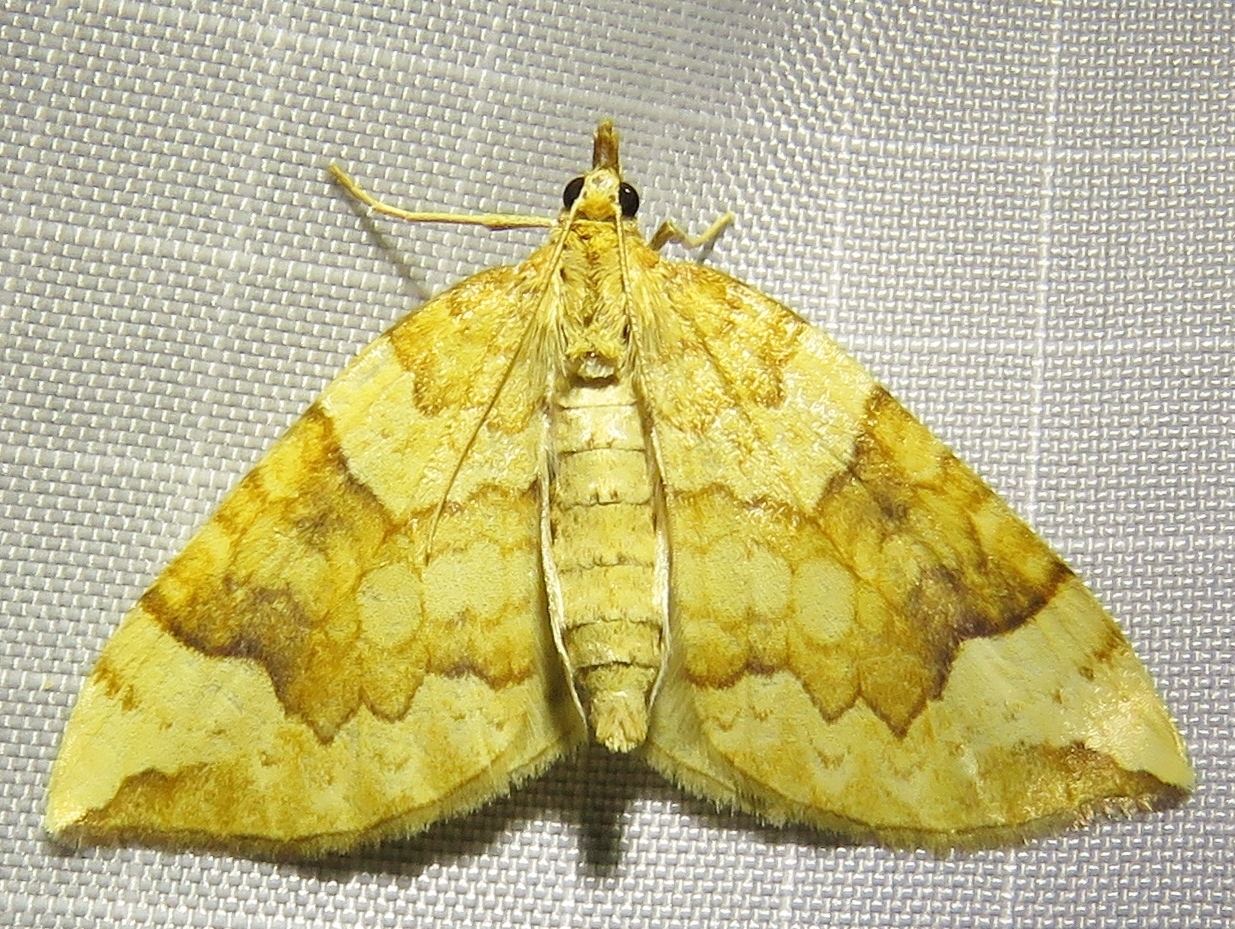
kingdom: Animalia
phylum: Arthropoda
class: Insecta
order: Lepidoptera
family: Geometridae
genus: Eulithis
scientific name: Eulithis populata
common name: Northern spinach
